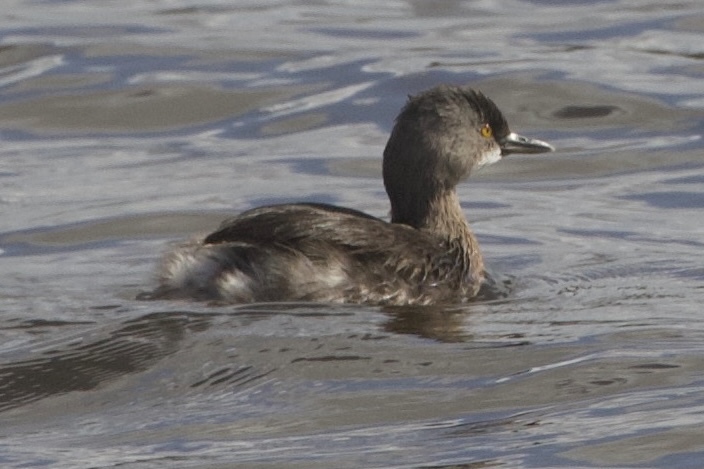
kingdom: Animalia
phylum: Chordata
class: Aves
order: Podicipediformes
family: Podicipedidae
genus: Tachybaptus
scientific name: Tachybaptus dominicus
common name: Least grebe
